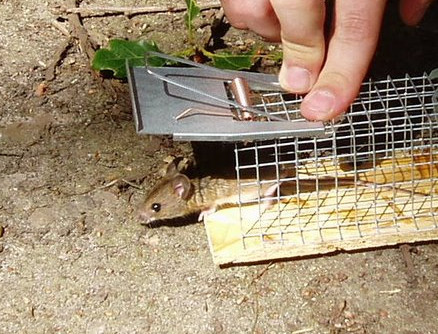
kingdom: Animalia
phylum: Chordata
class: Mammalia
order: Rodentia
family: Muridae
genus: Apodemus
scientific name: Apodemus sylvaticus
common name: Wood mouse
